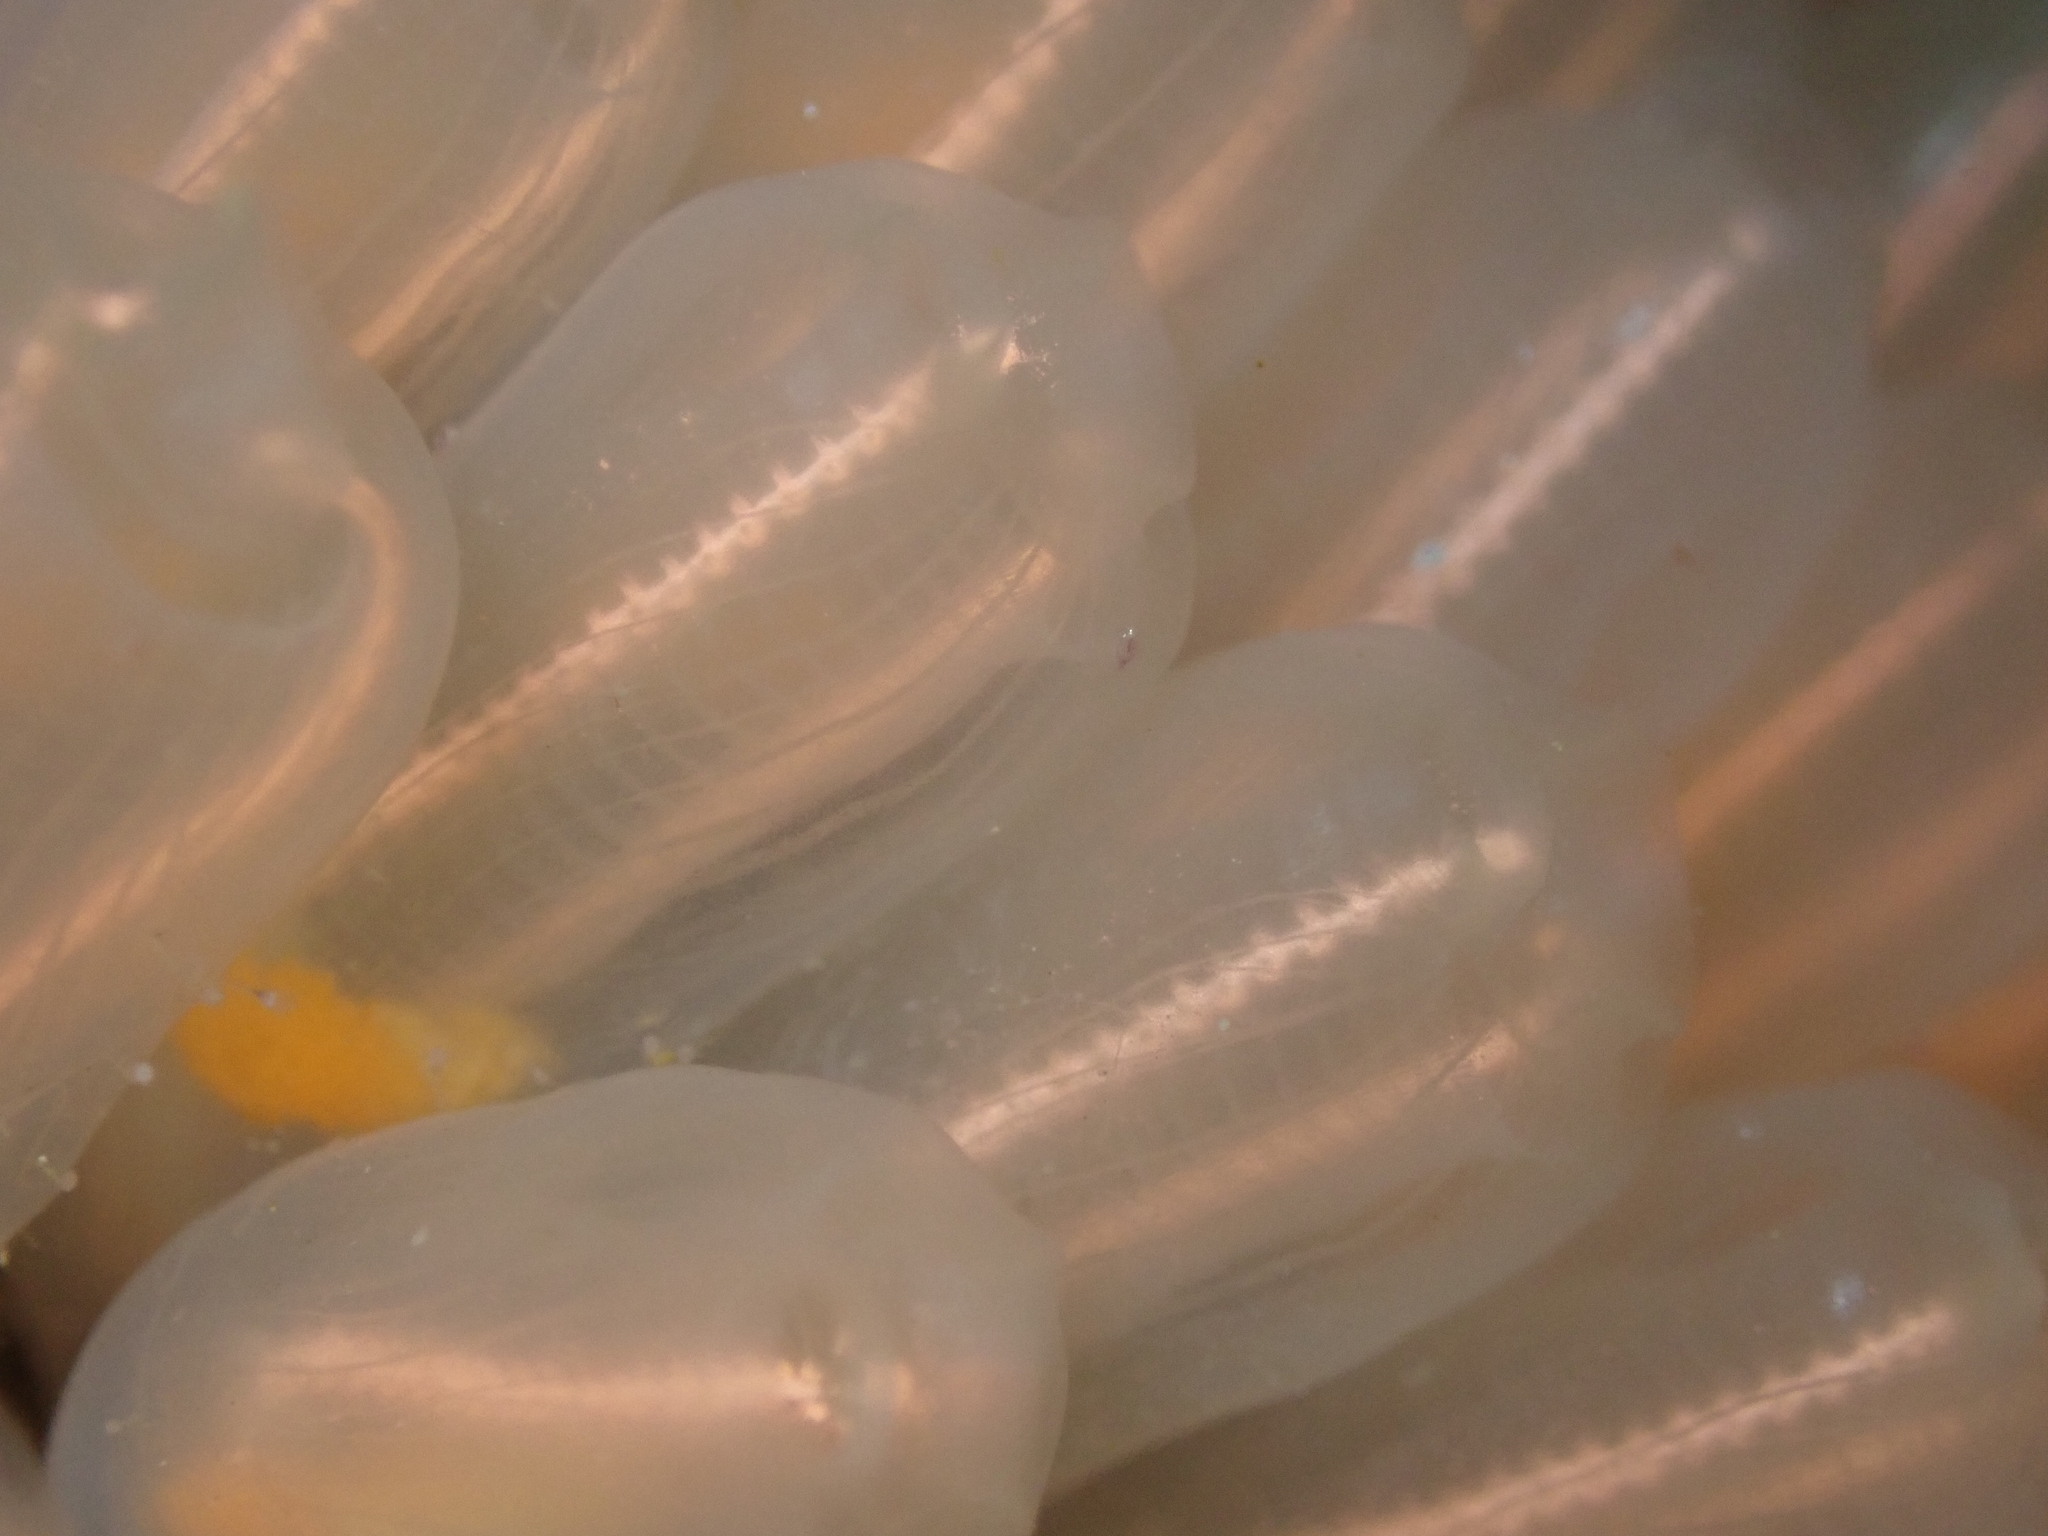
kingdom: Animalia
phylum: Chordata
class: Ascidiacea
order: Aplousobranchia
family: Clavelinidae
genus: Clavelina
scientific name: Clavelina huntsmani
